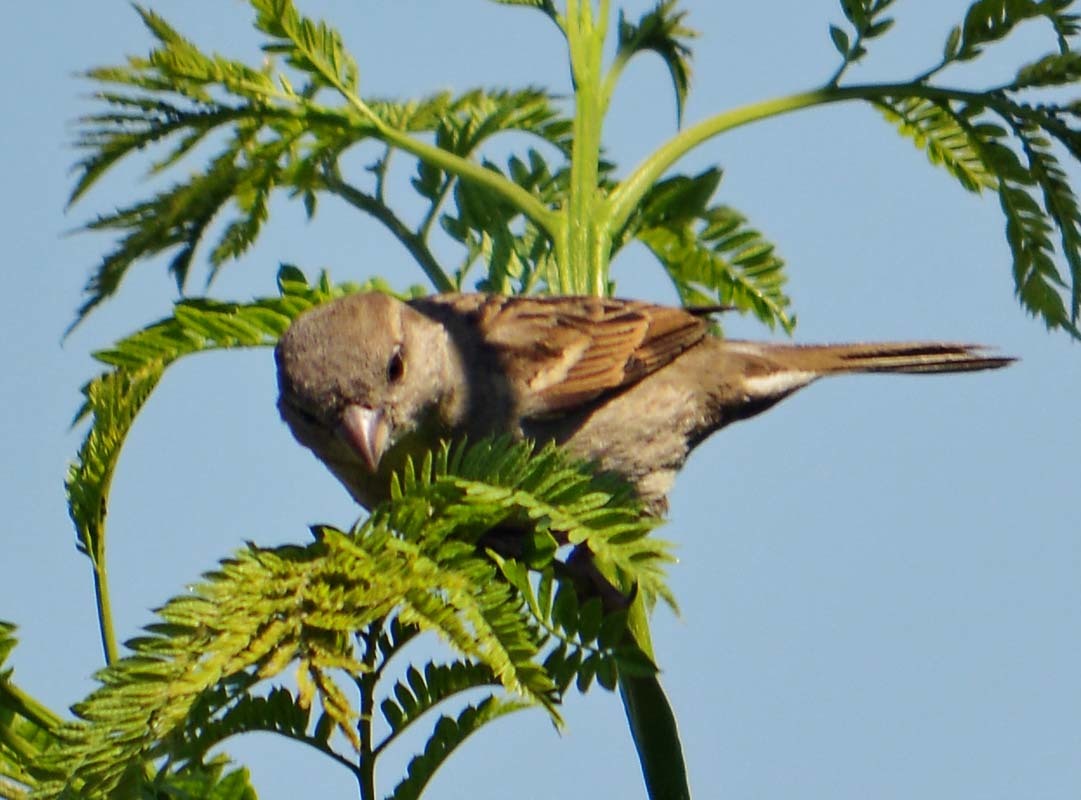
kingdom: Animalia
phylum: Chordata
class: Aves
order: Passeriformes
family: Passeridae
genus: Passer
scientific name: Passer domesticus
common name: House sparrow
